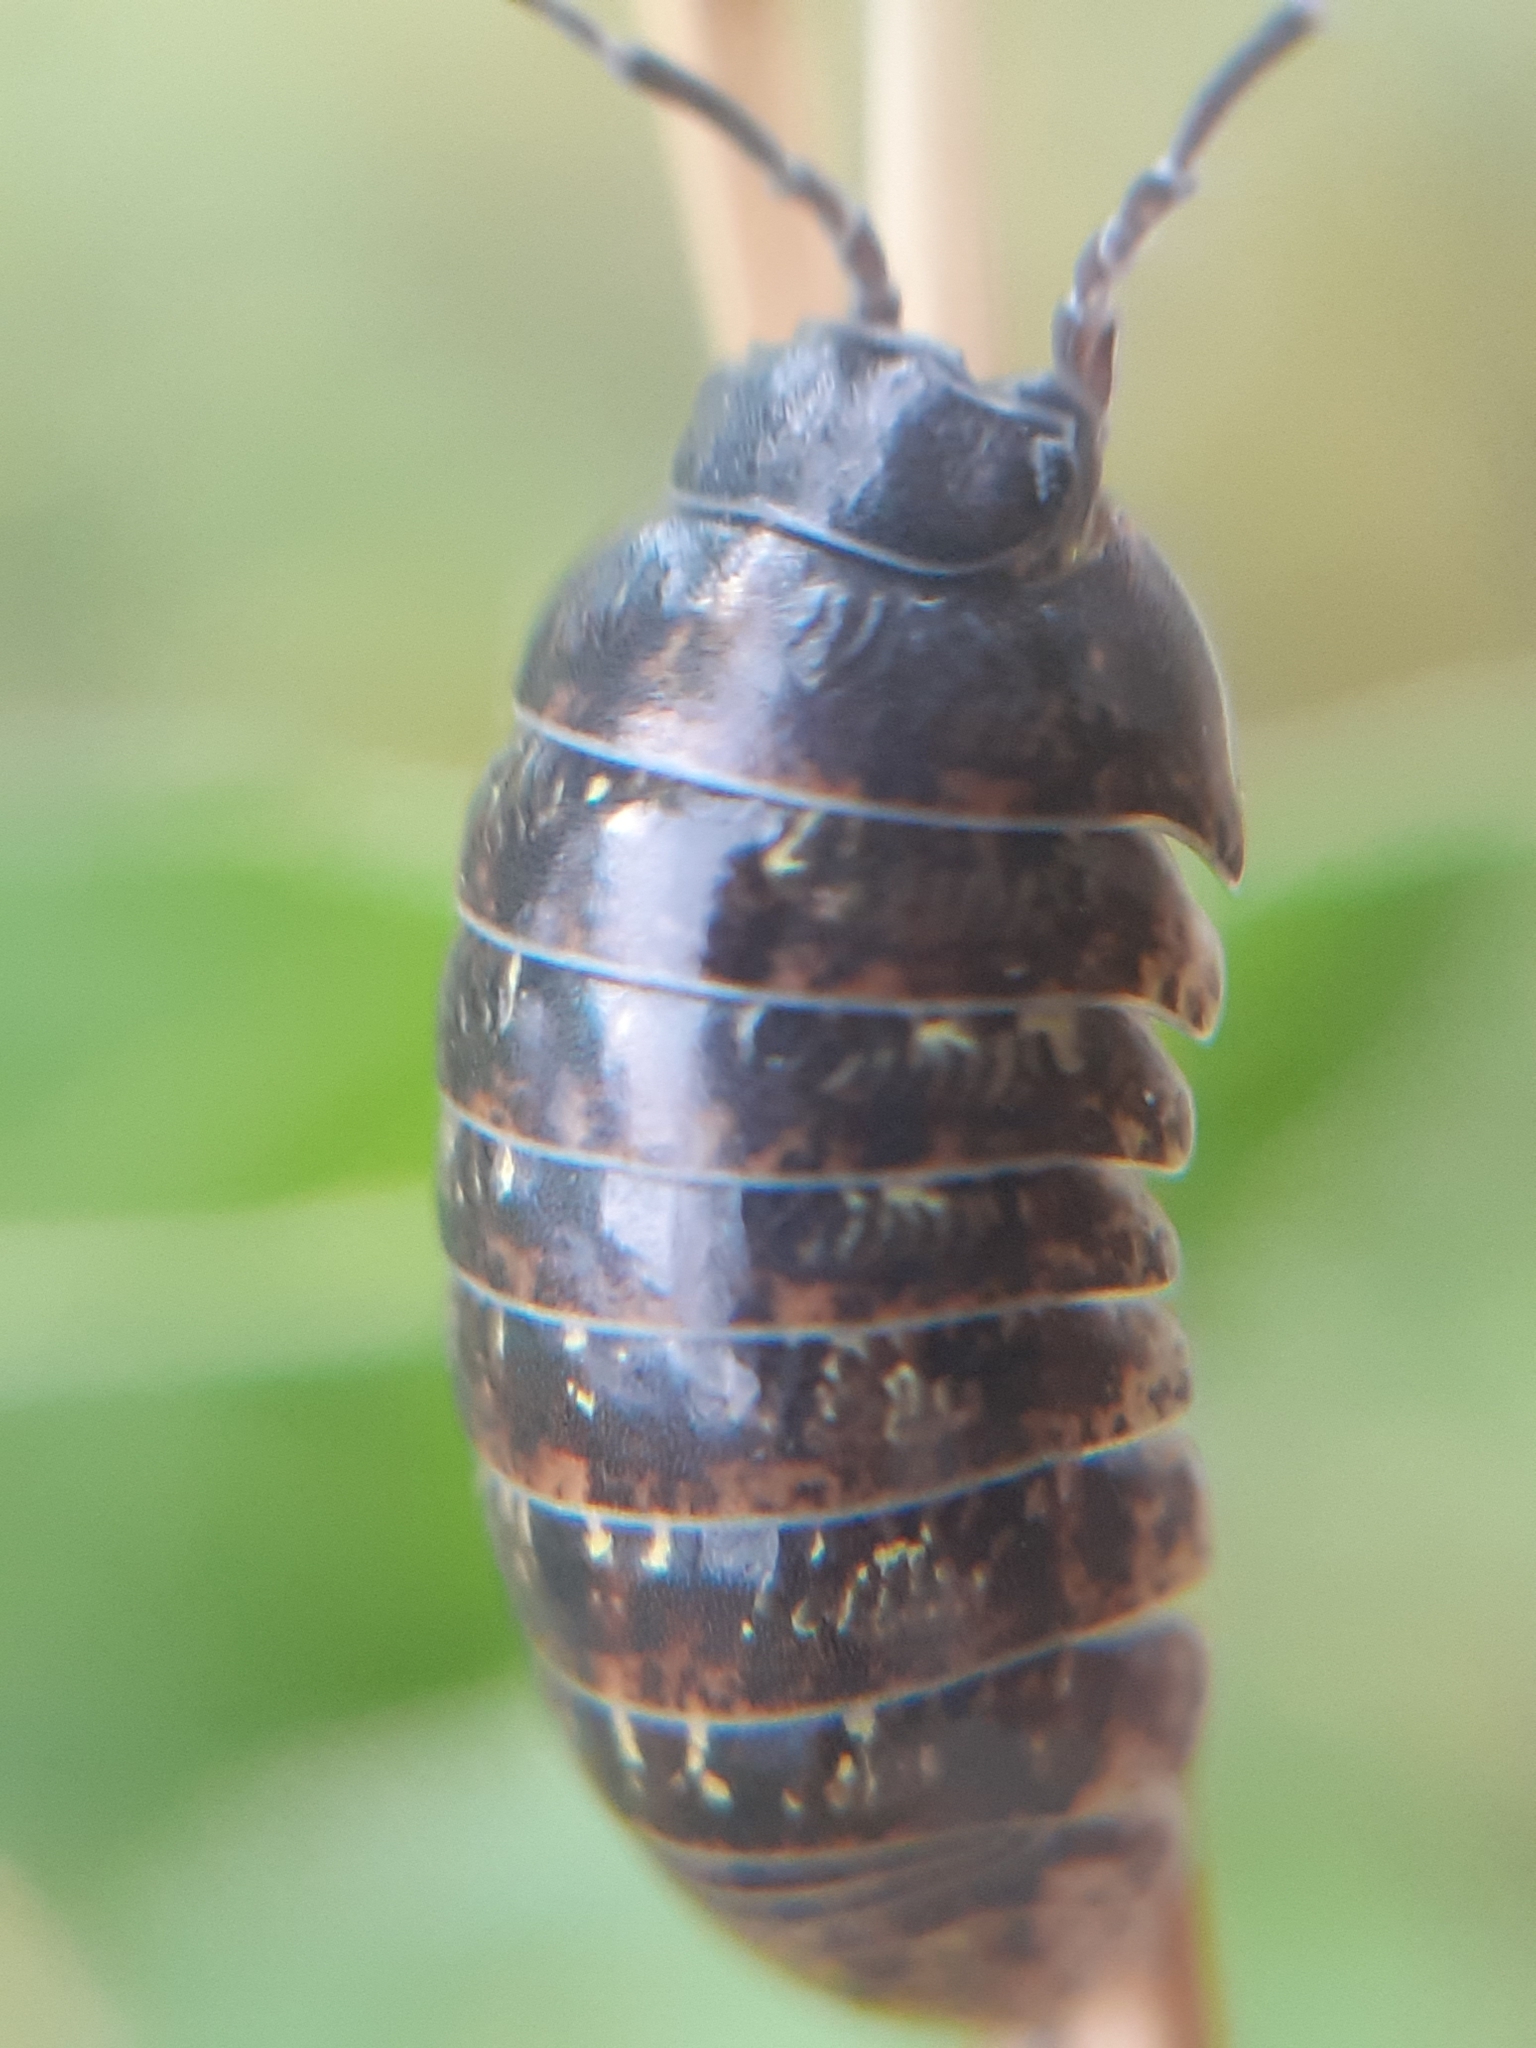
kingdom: Animalia
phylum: Arthropoda
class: Malacostraca
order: Isopoda
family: Armadillidiidae
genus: Armadillidium
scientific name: Armadillidium opacum
